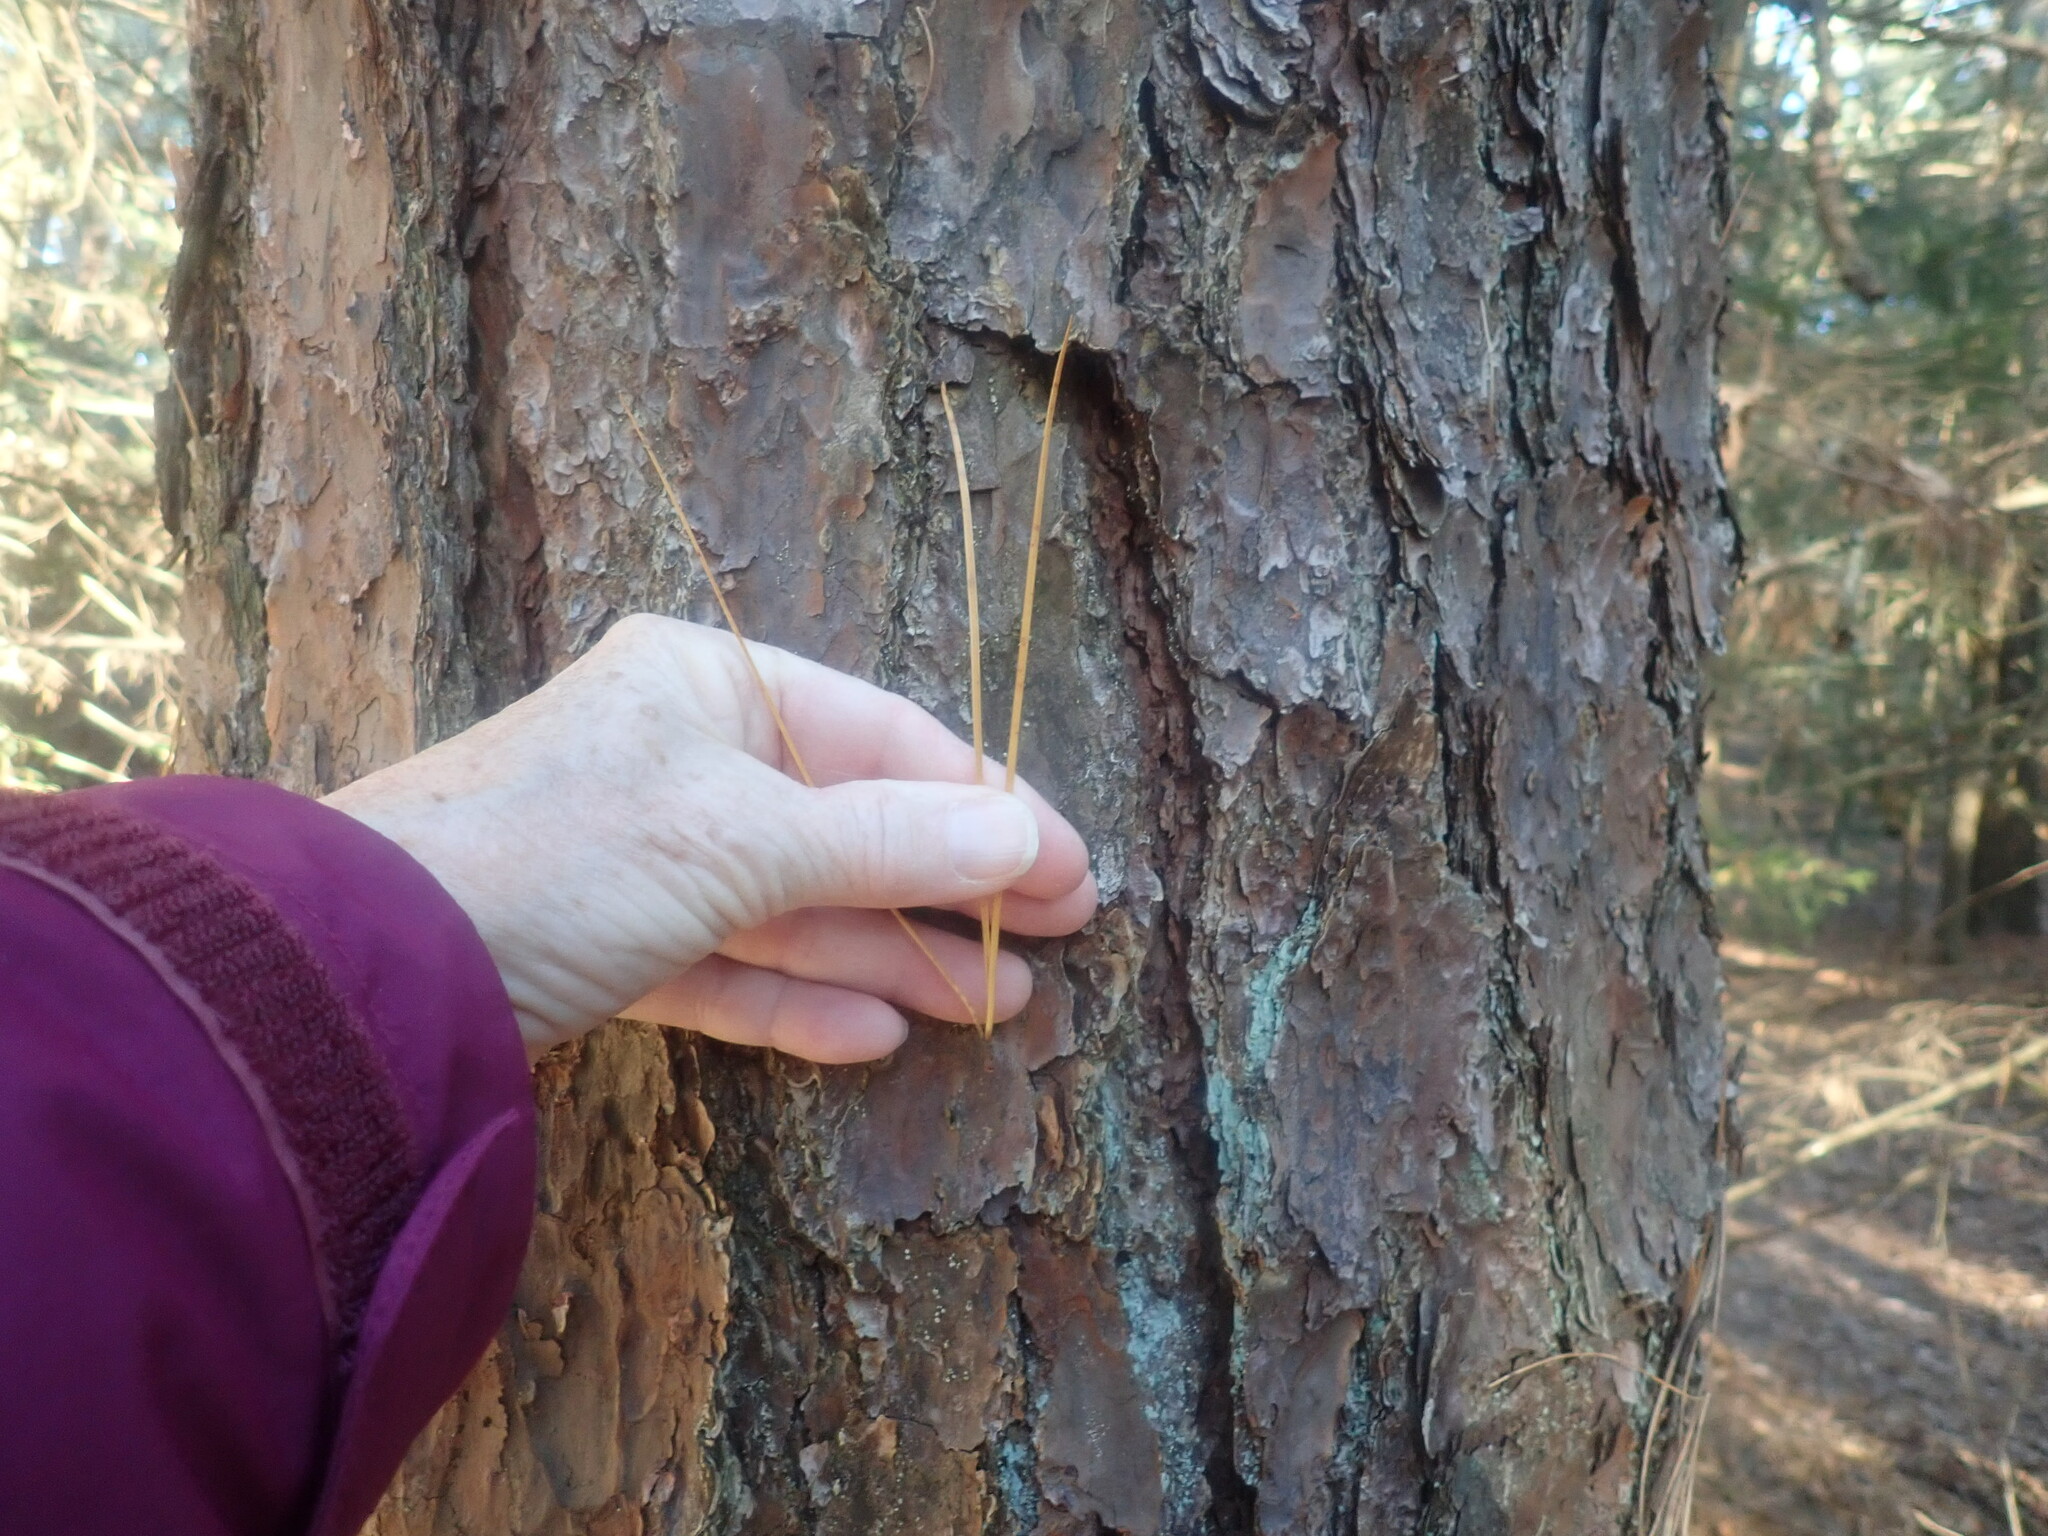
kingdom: Plantae
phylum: Tracheophyta
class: Pinopsida
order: Pinales
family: Pinaceae
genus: Pinus
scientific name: Pinus rigida
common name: Pitch pine
